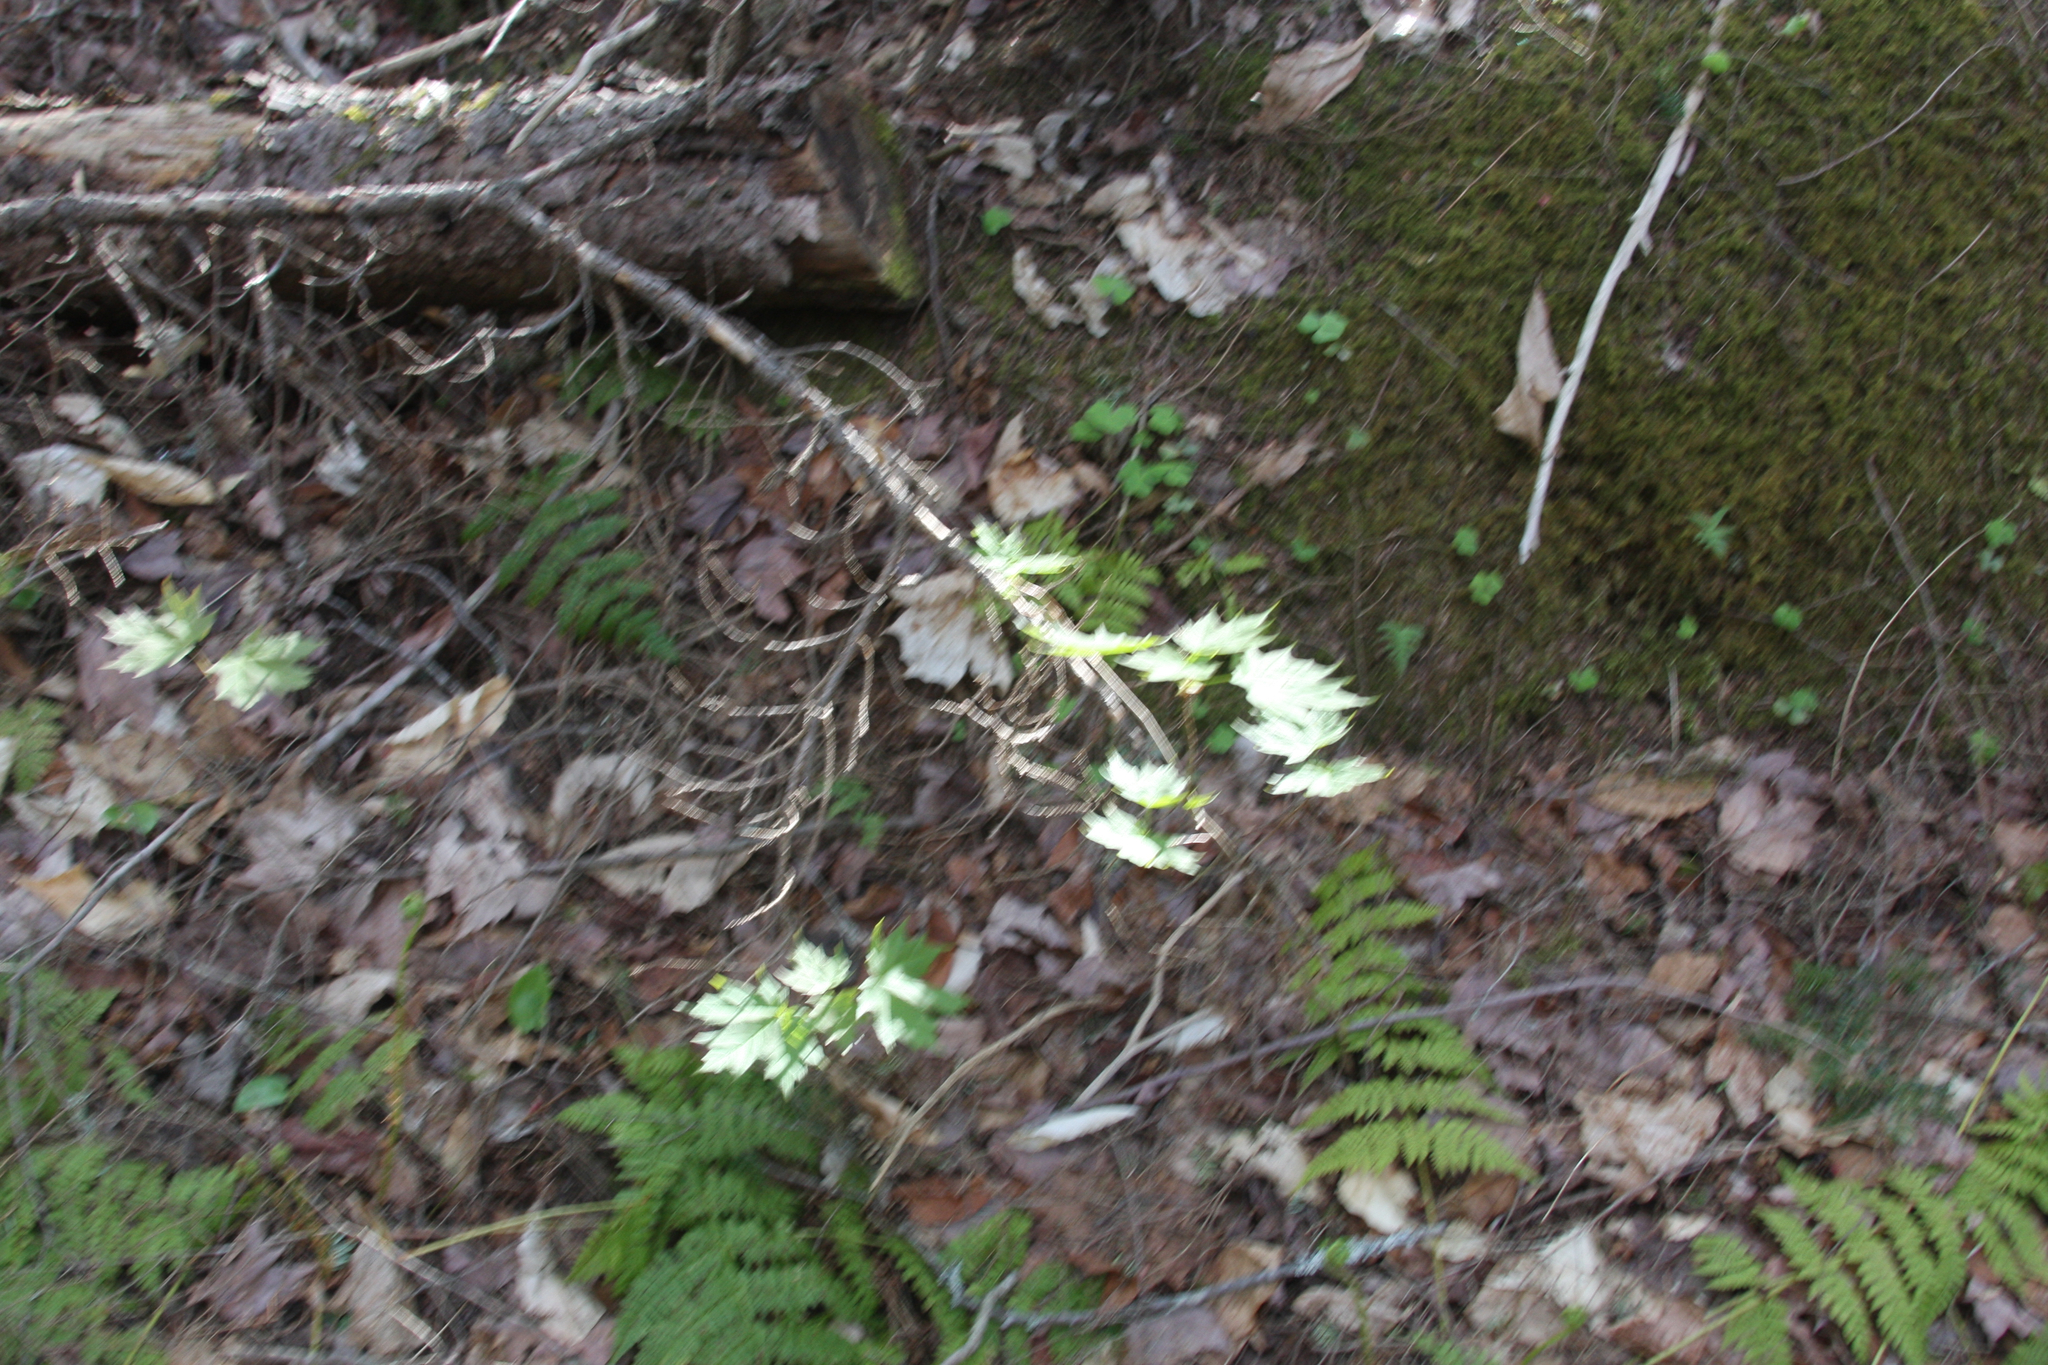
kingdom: Plantae
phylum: Tracheophyta
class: Magnoliopsida
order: Sapindales
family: Sapindaceae
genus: Acer
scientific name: Acer saccharum
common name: Sugar maple
